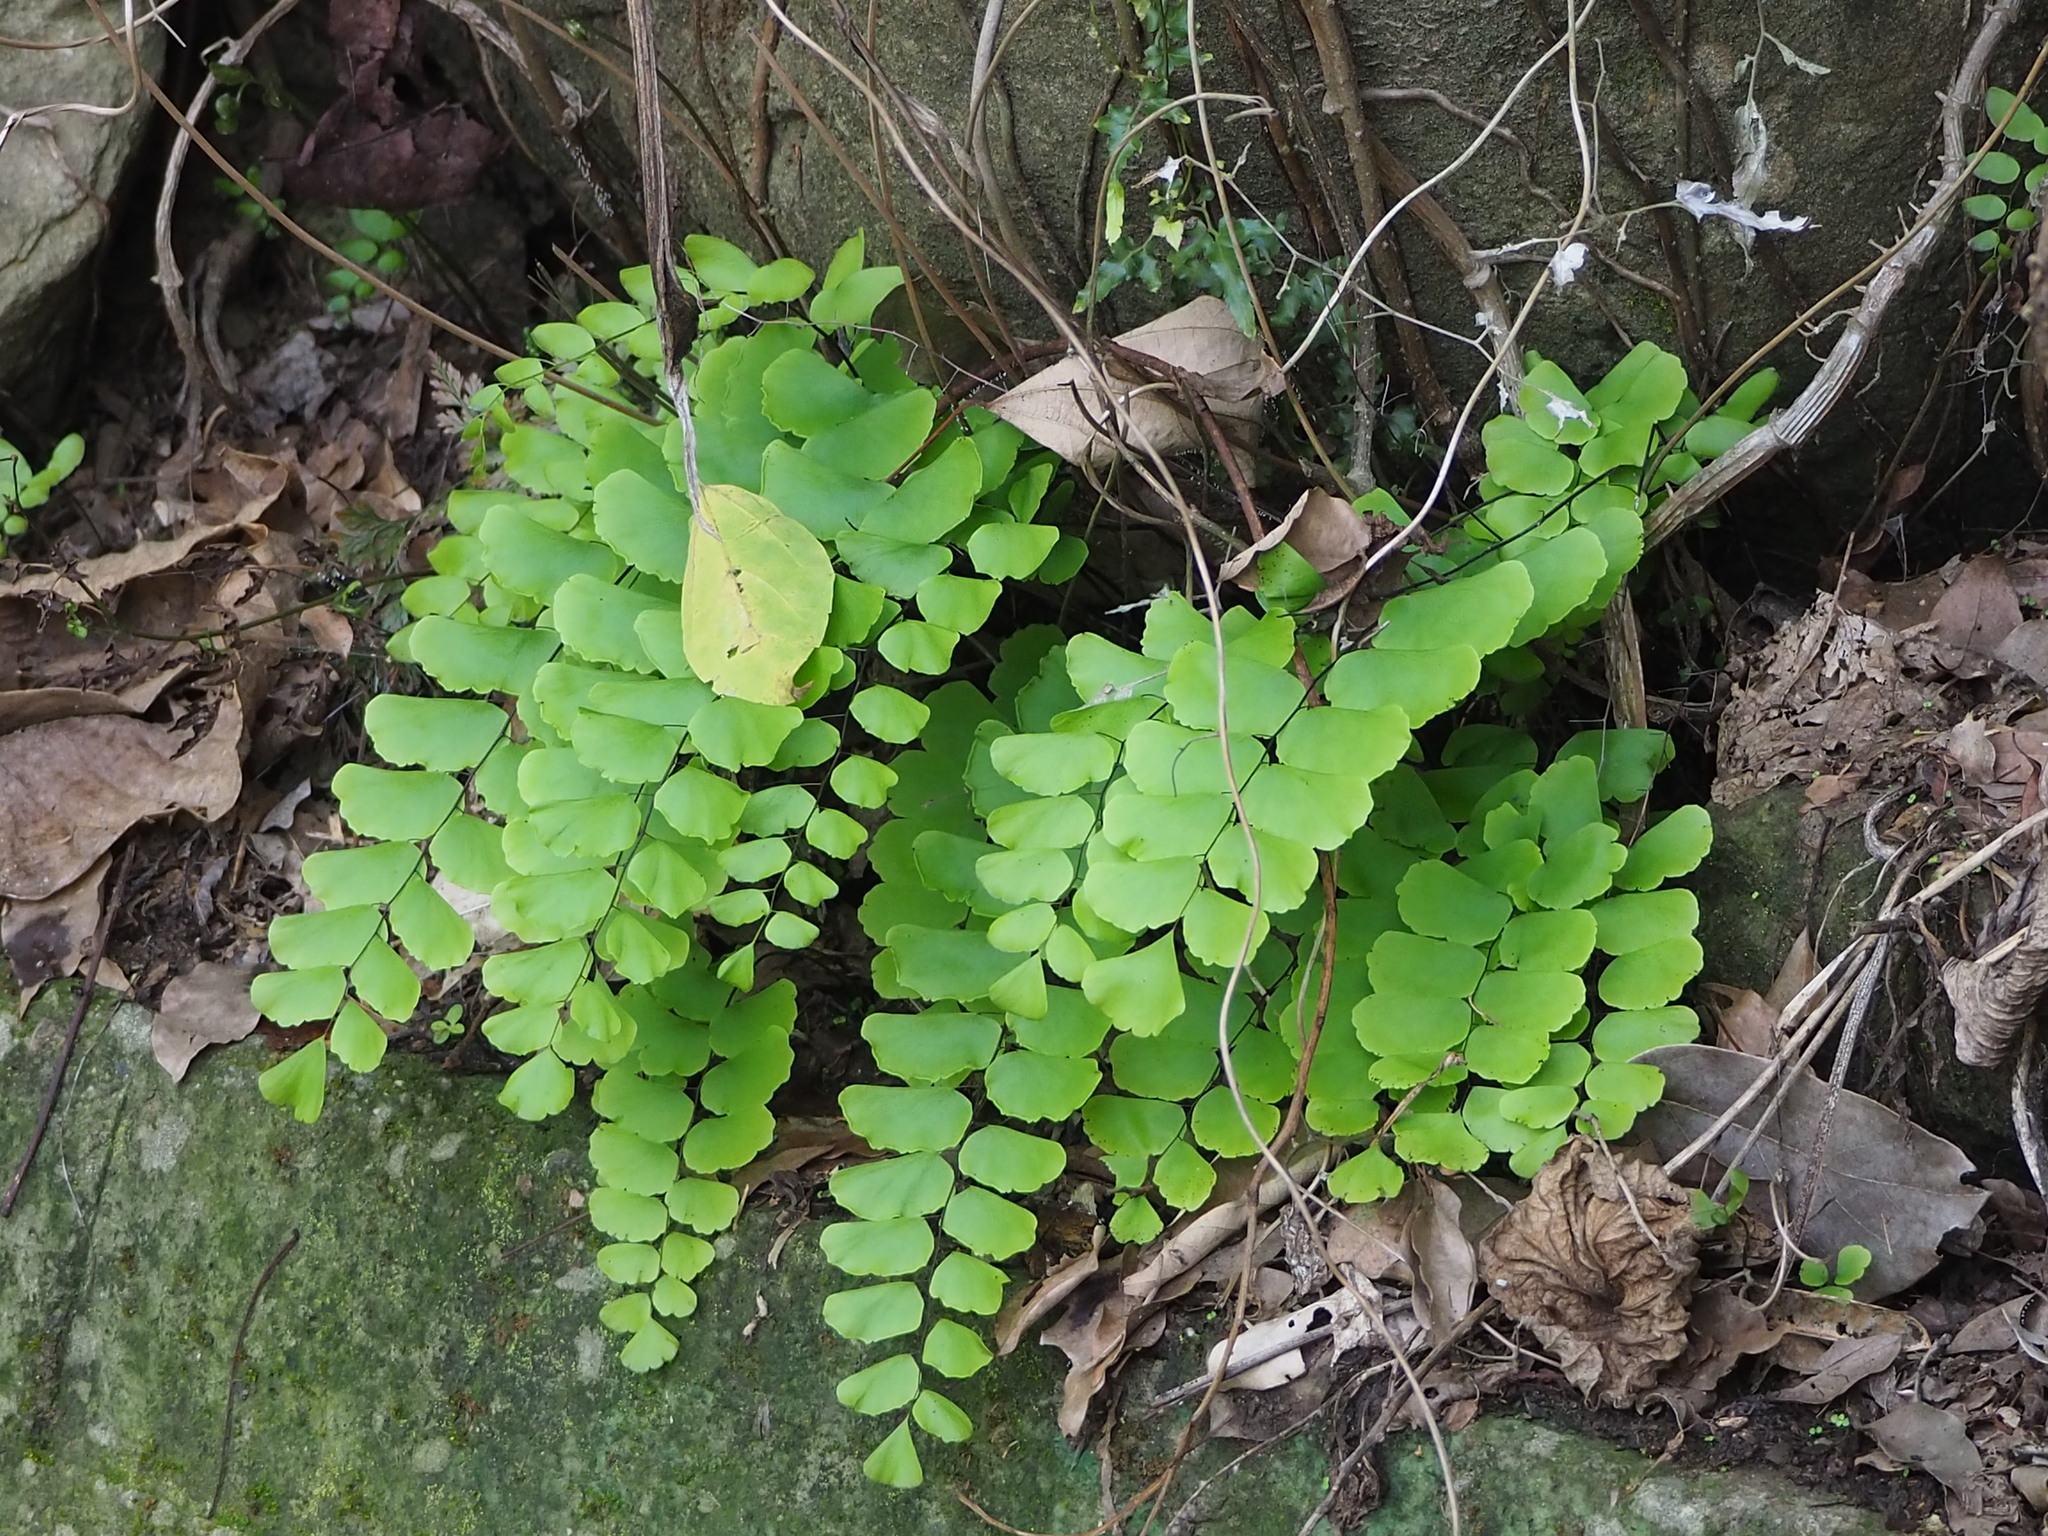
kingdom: Plantae
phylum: Tracheophyta
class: Polypodiopsida
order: Polypodiales
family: Pteridaceae
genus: Adiantum
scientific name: Adiantum philippense
